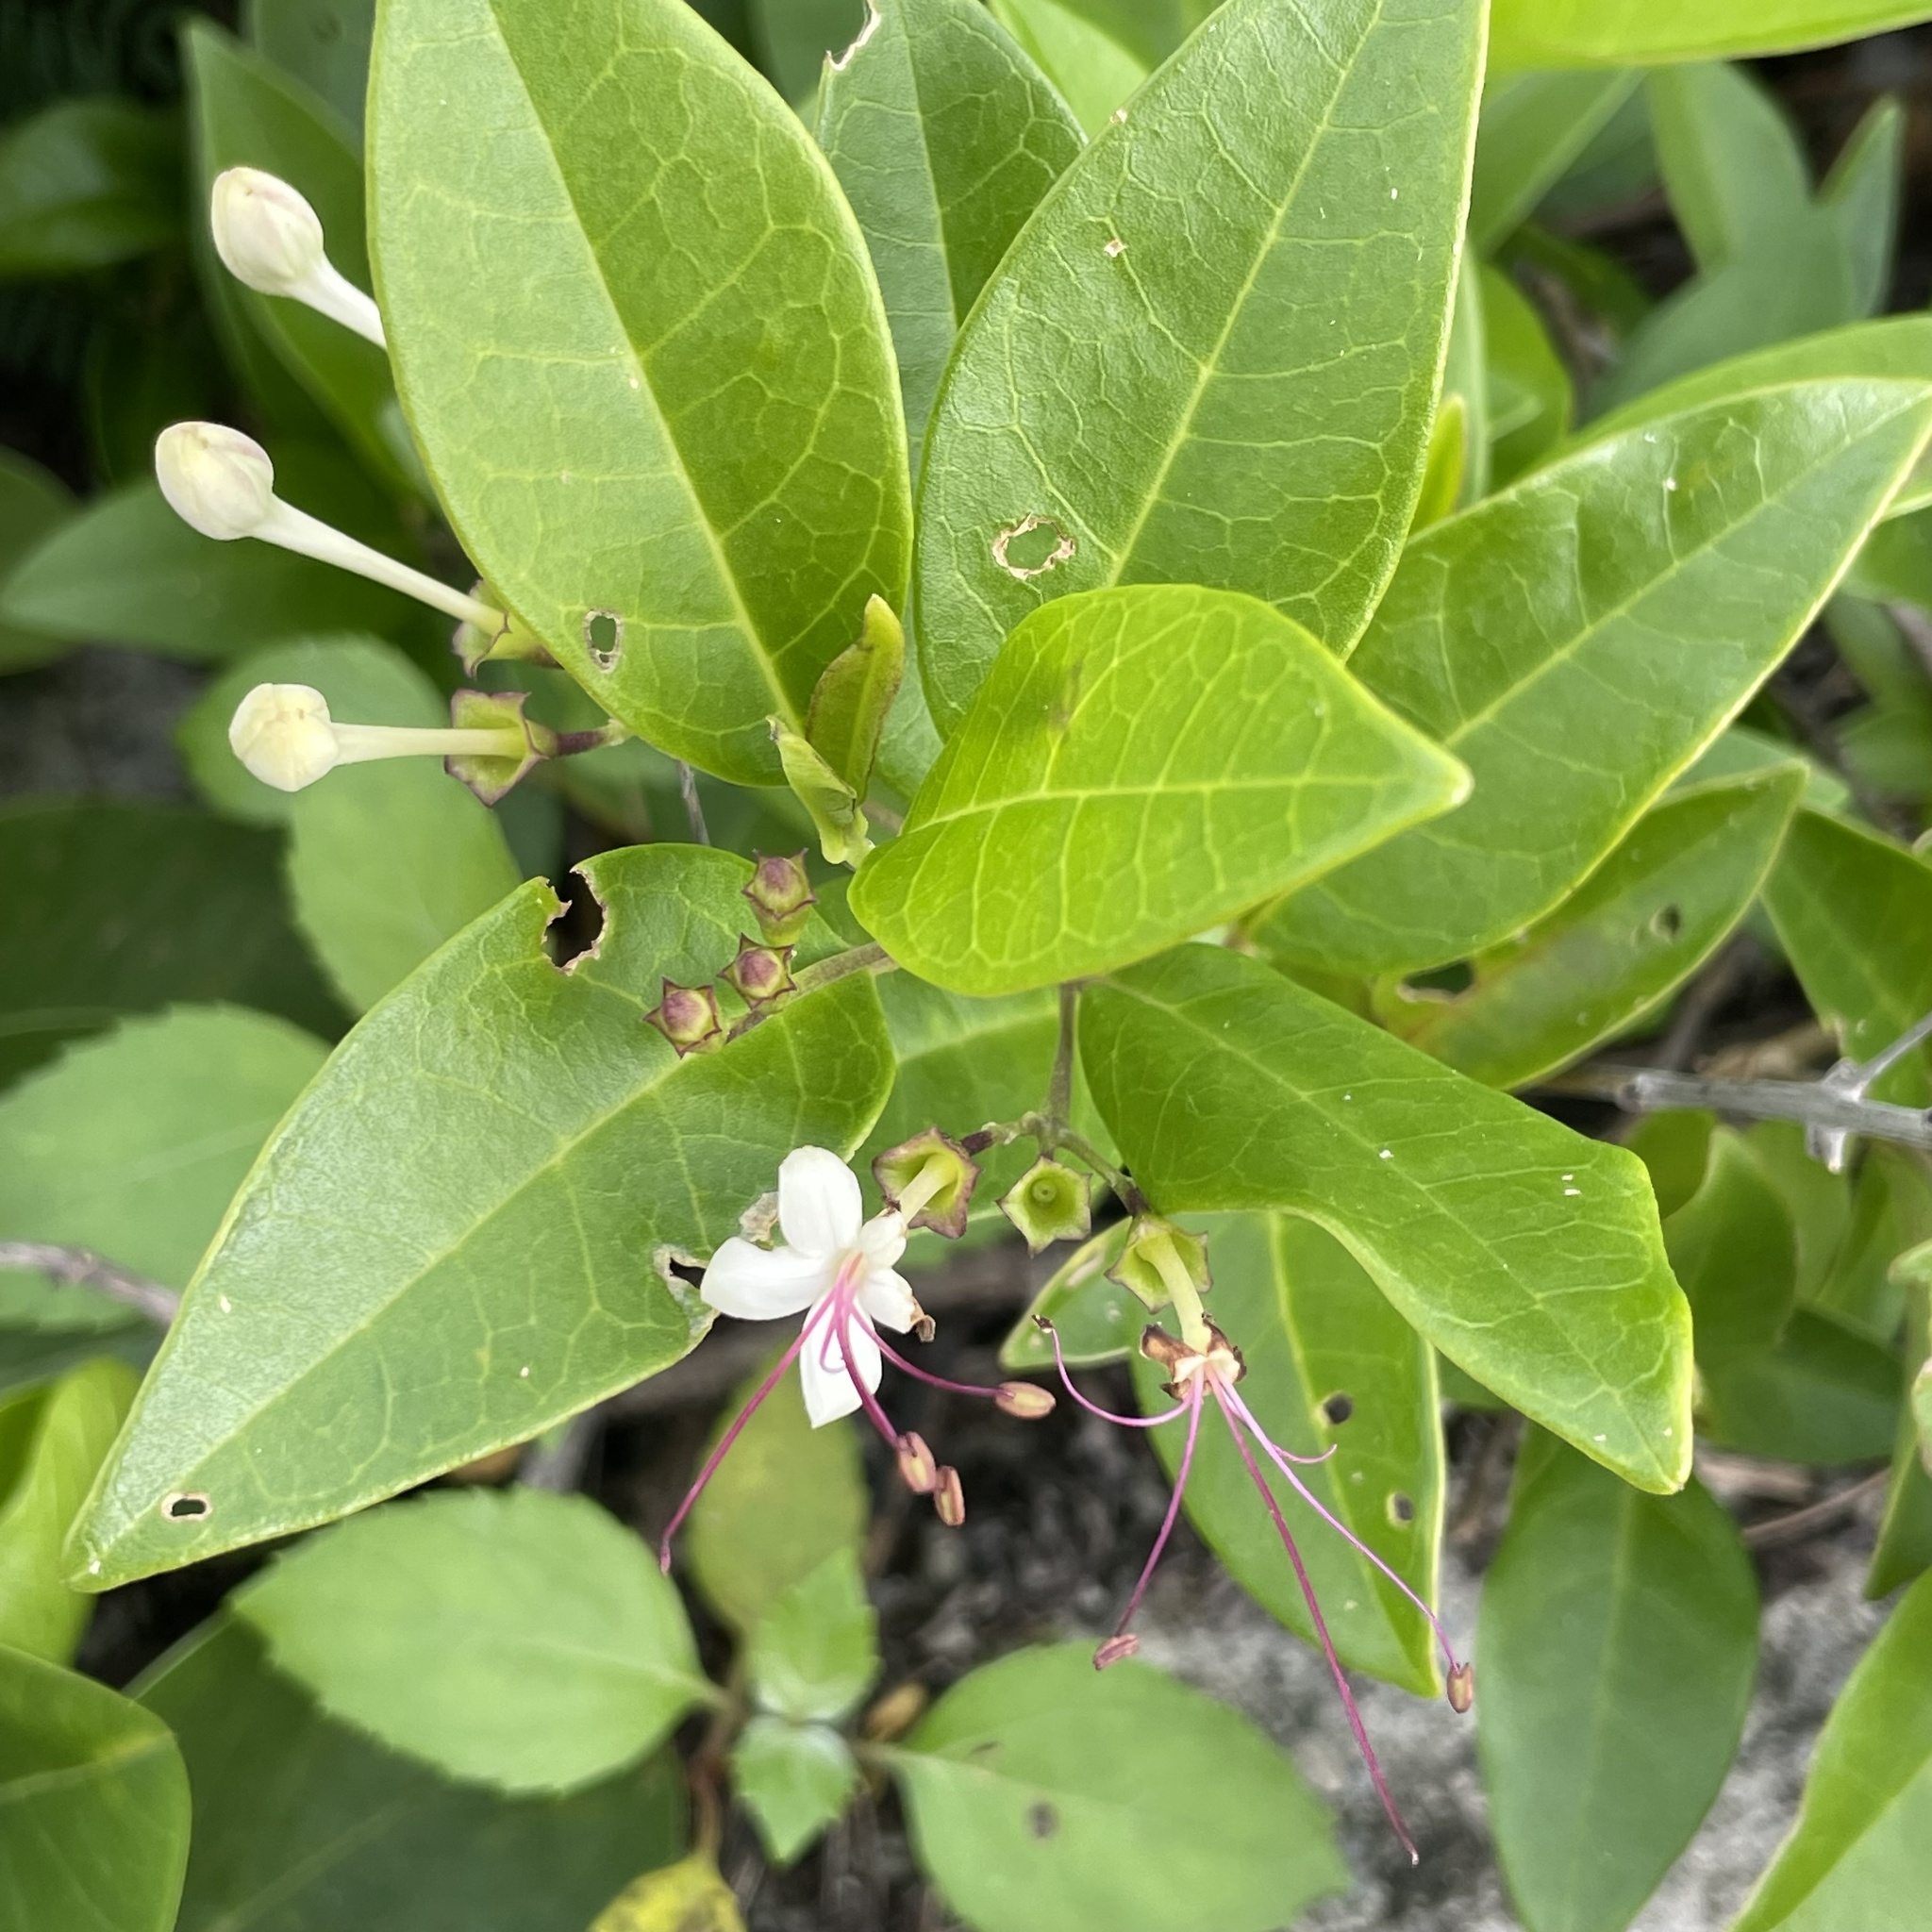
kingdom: Plantae
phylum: Tracheophyta
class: Magnoliopsida
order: Lamiales
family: Lamiaceae
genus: Volkameria
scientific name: Volkameria inermis
